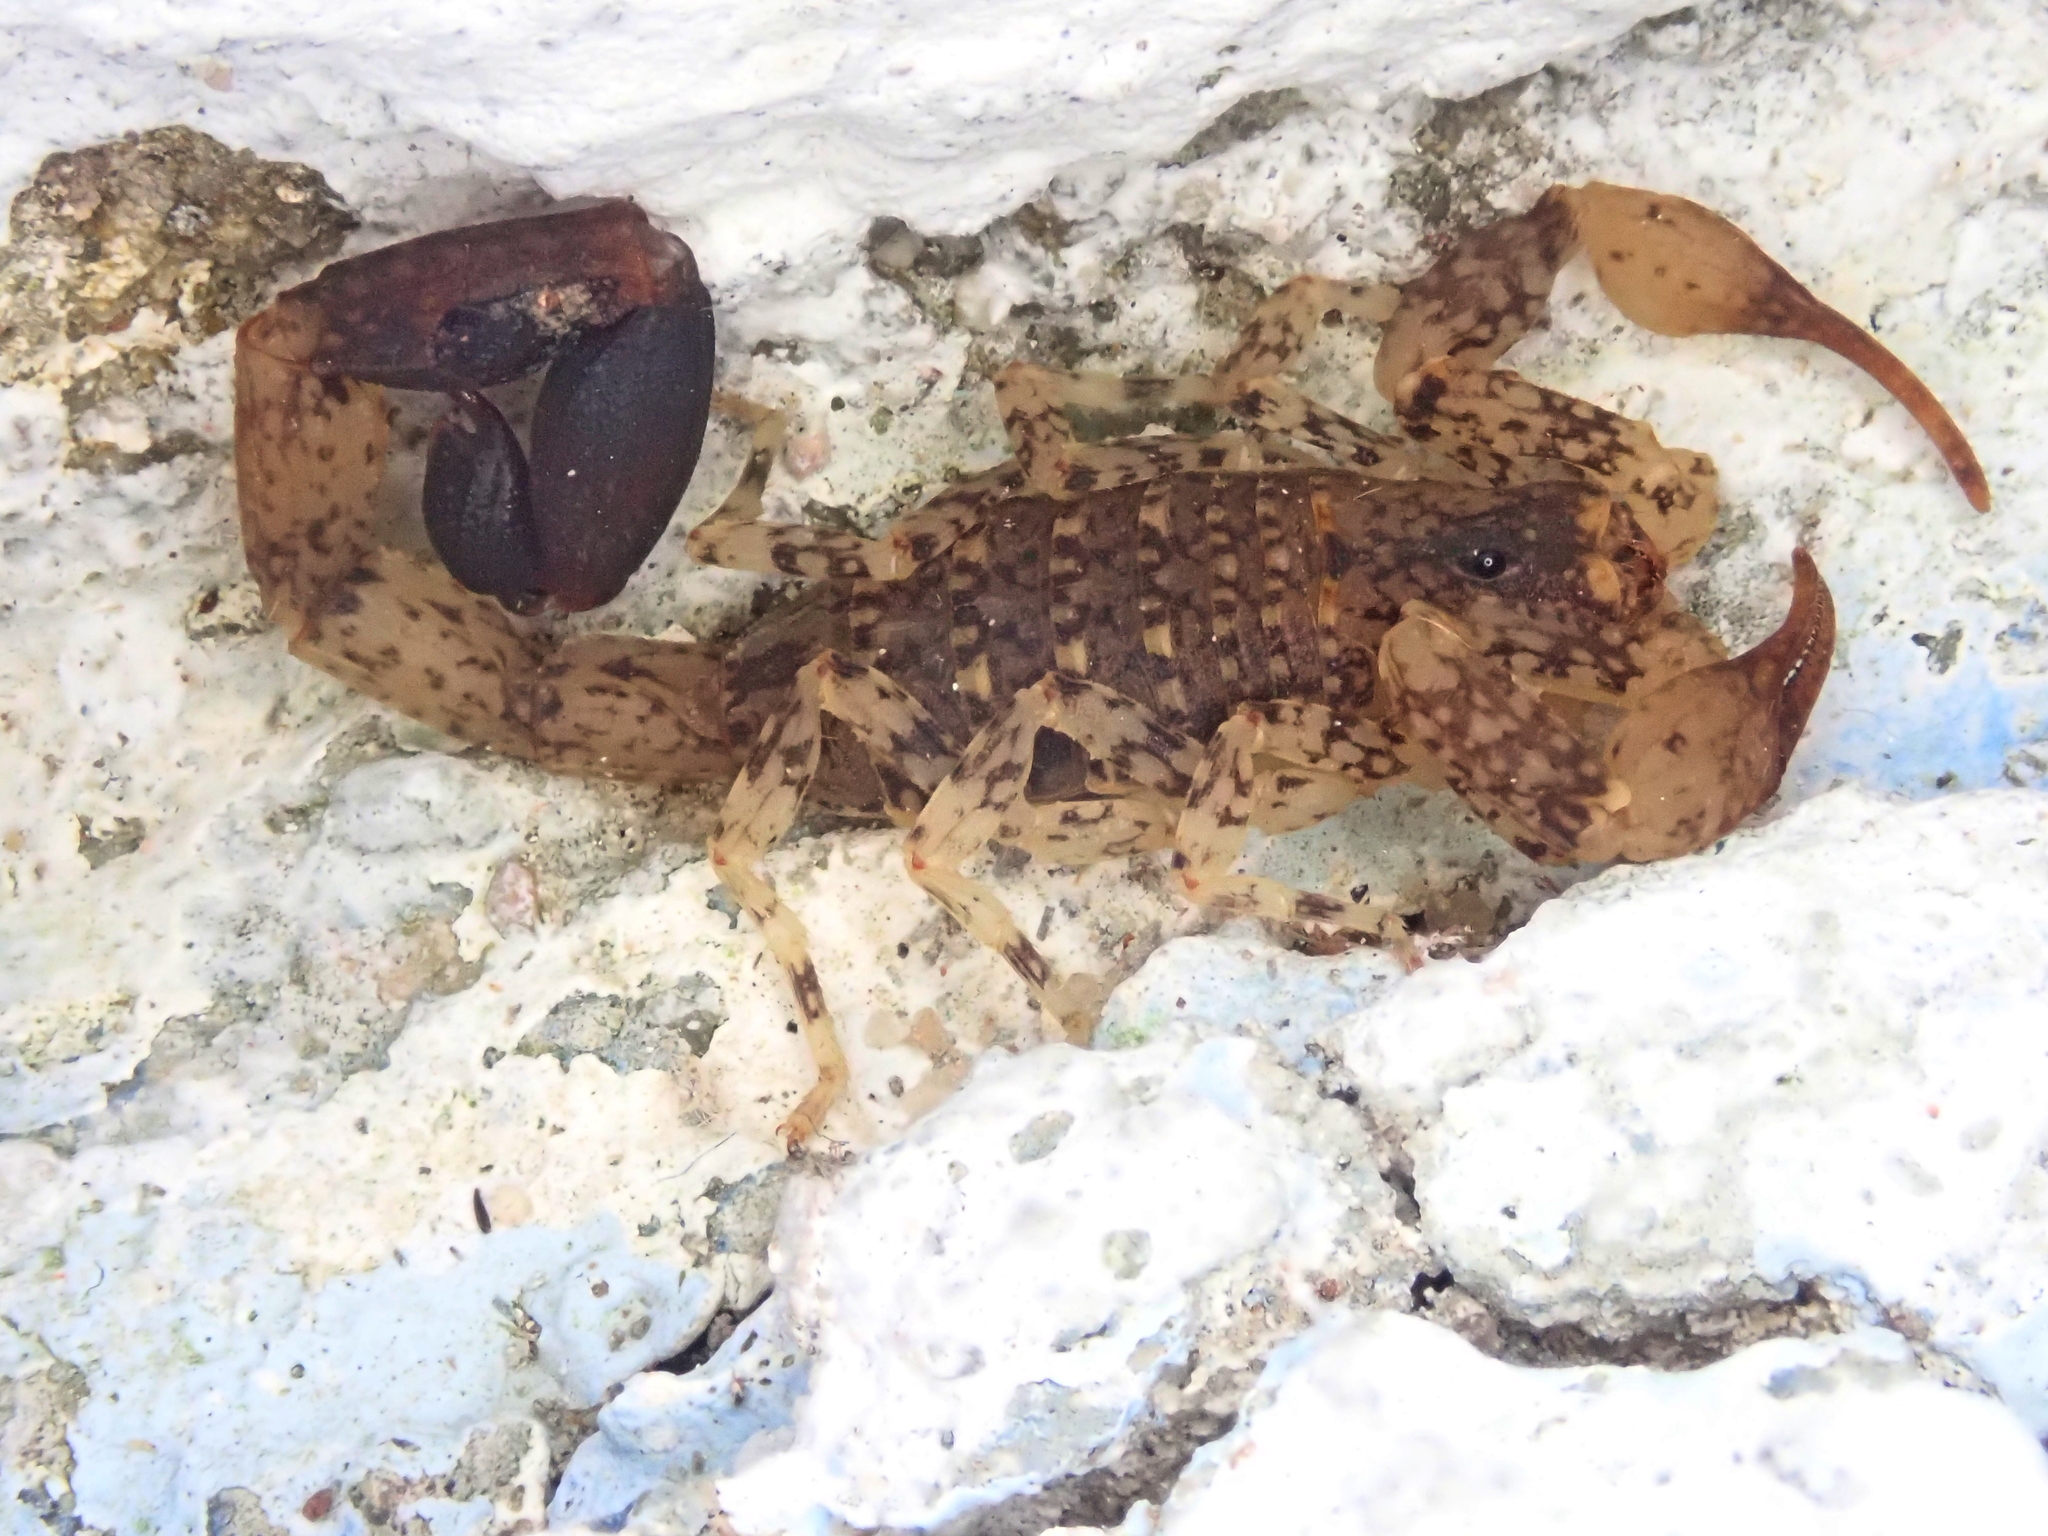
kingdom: Animalia
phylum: Arthropoda
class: Arachnida
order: Scorpiones
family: Buthidae
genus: Tityus
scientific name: Tityus mattogrossensis
